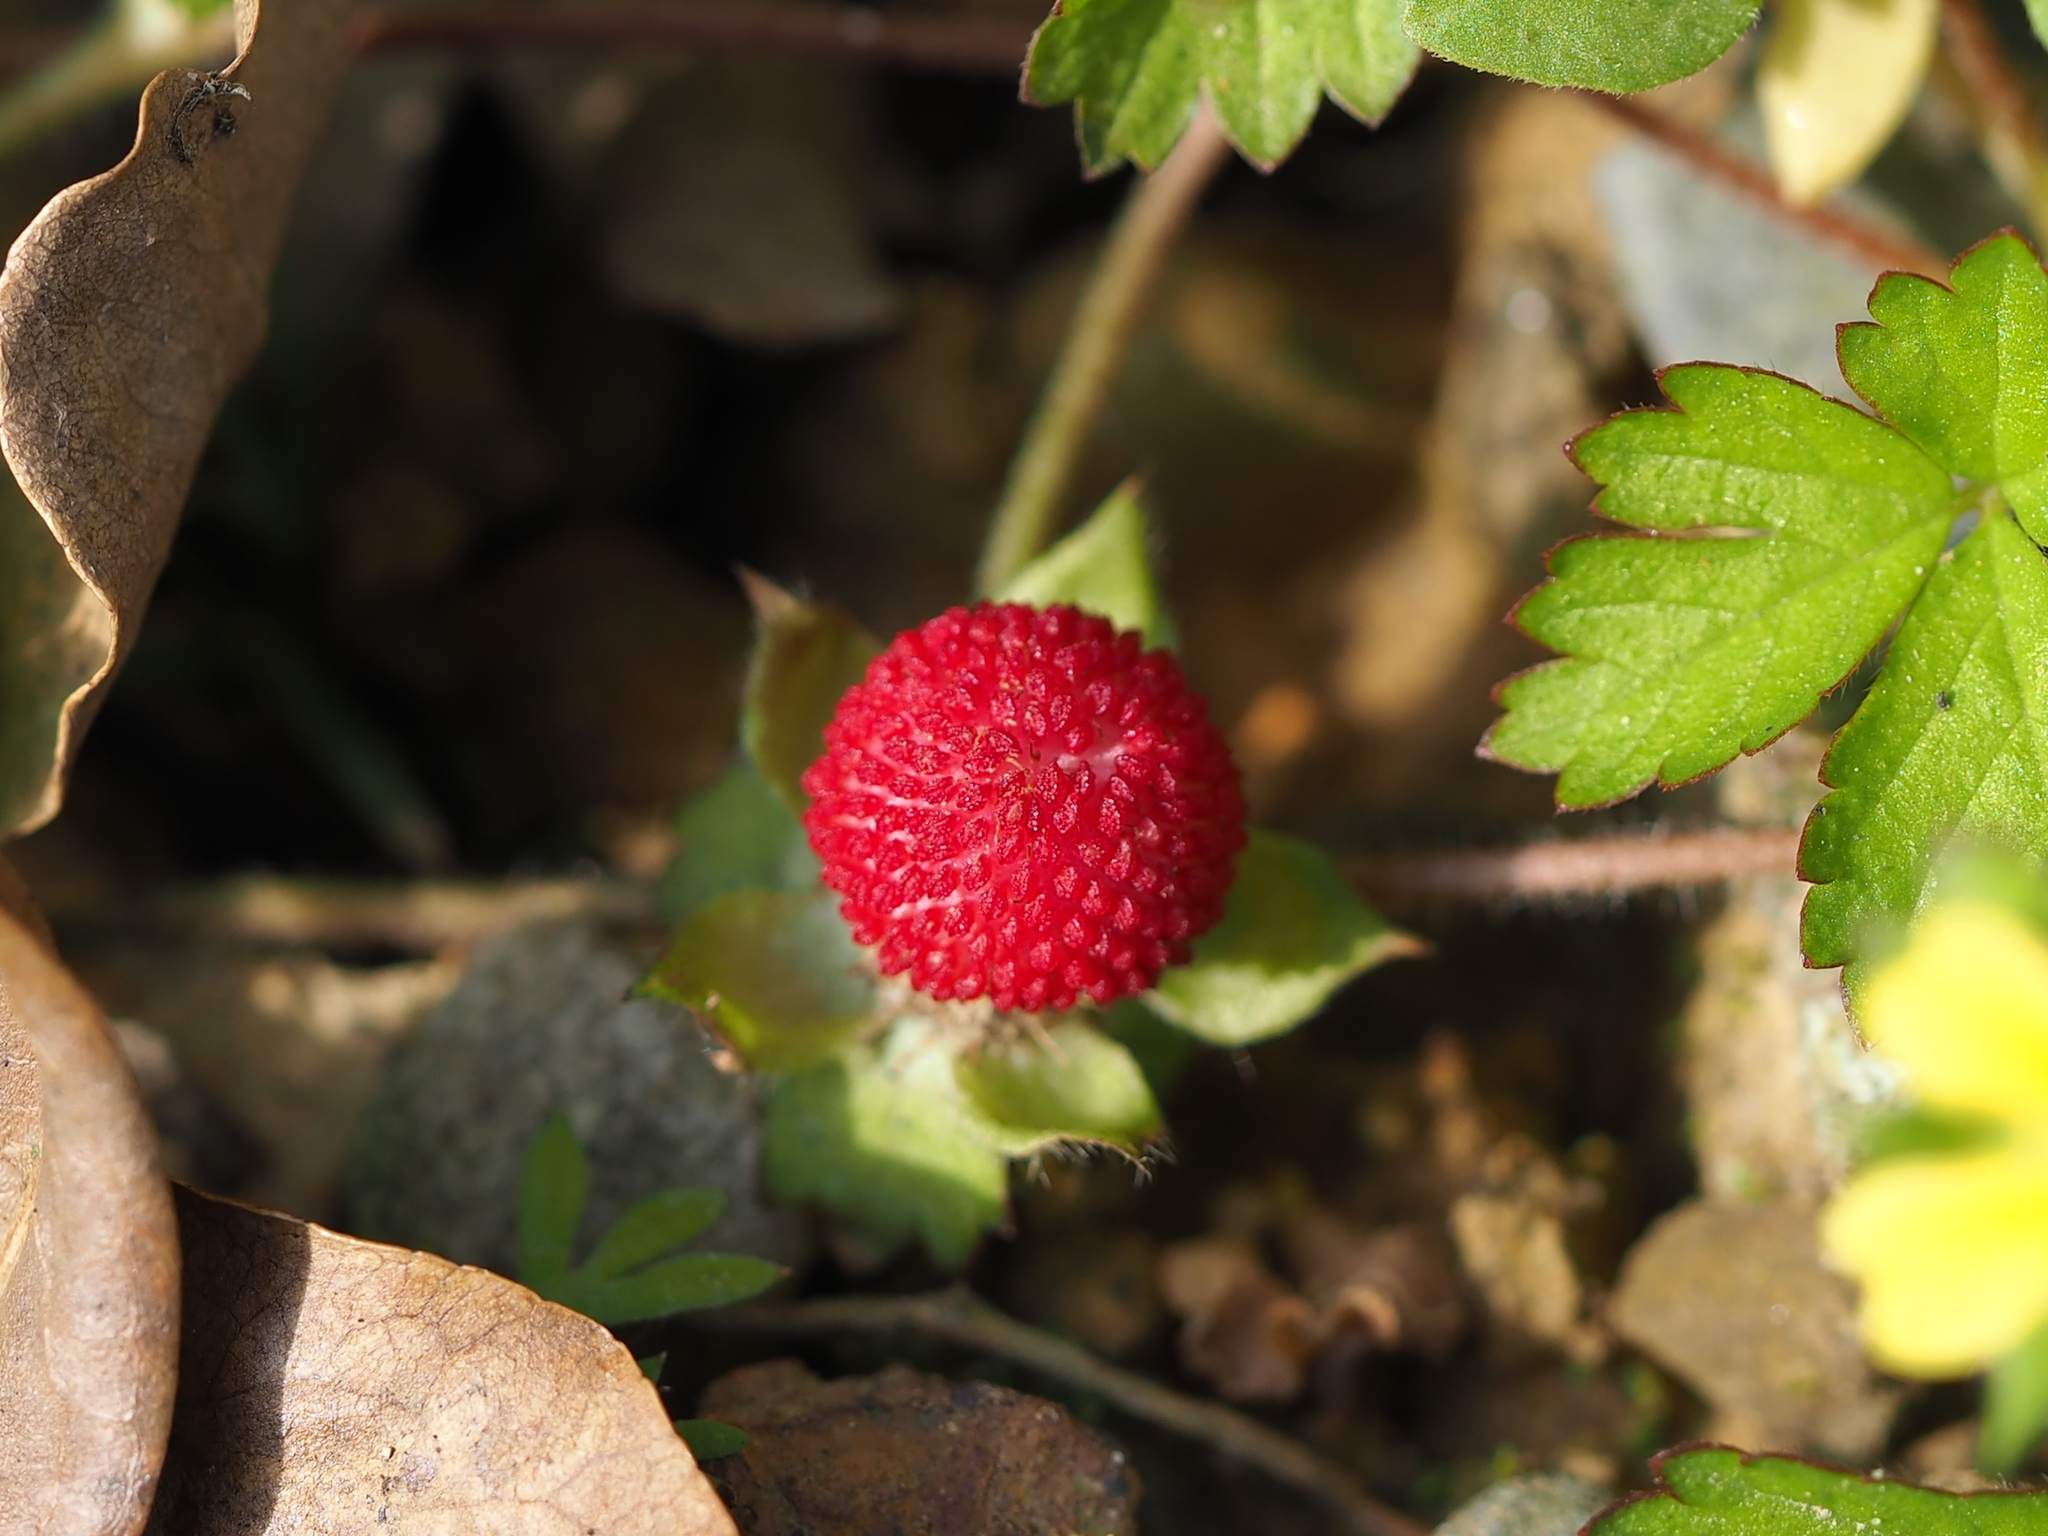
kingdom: Plantae
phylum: Tracheophyta
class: Magnoliopsida
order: Rosales
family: Rosaceae
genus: Potentilla
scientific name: Potentilla wallichiana
